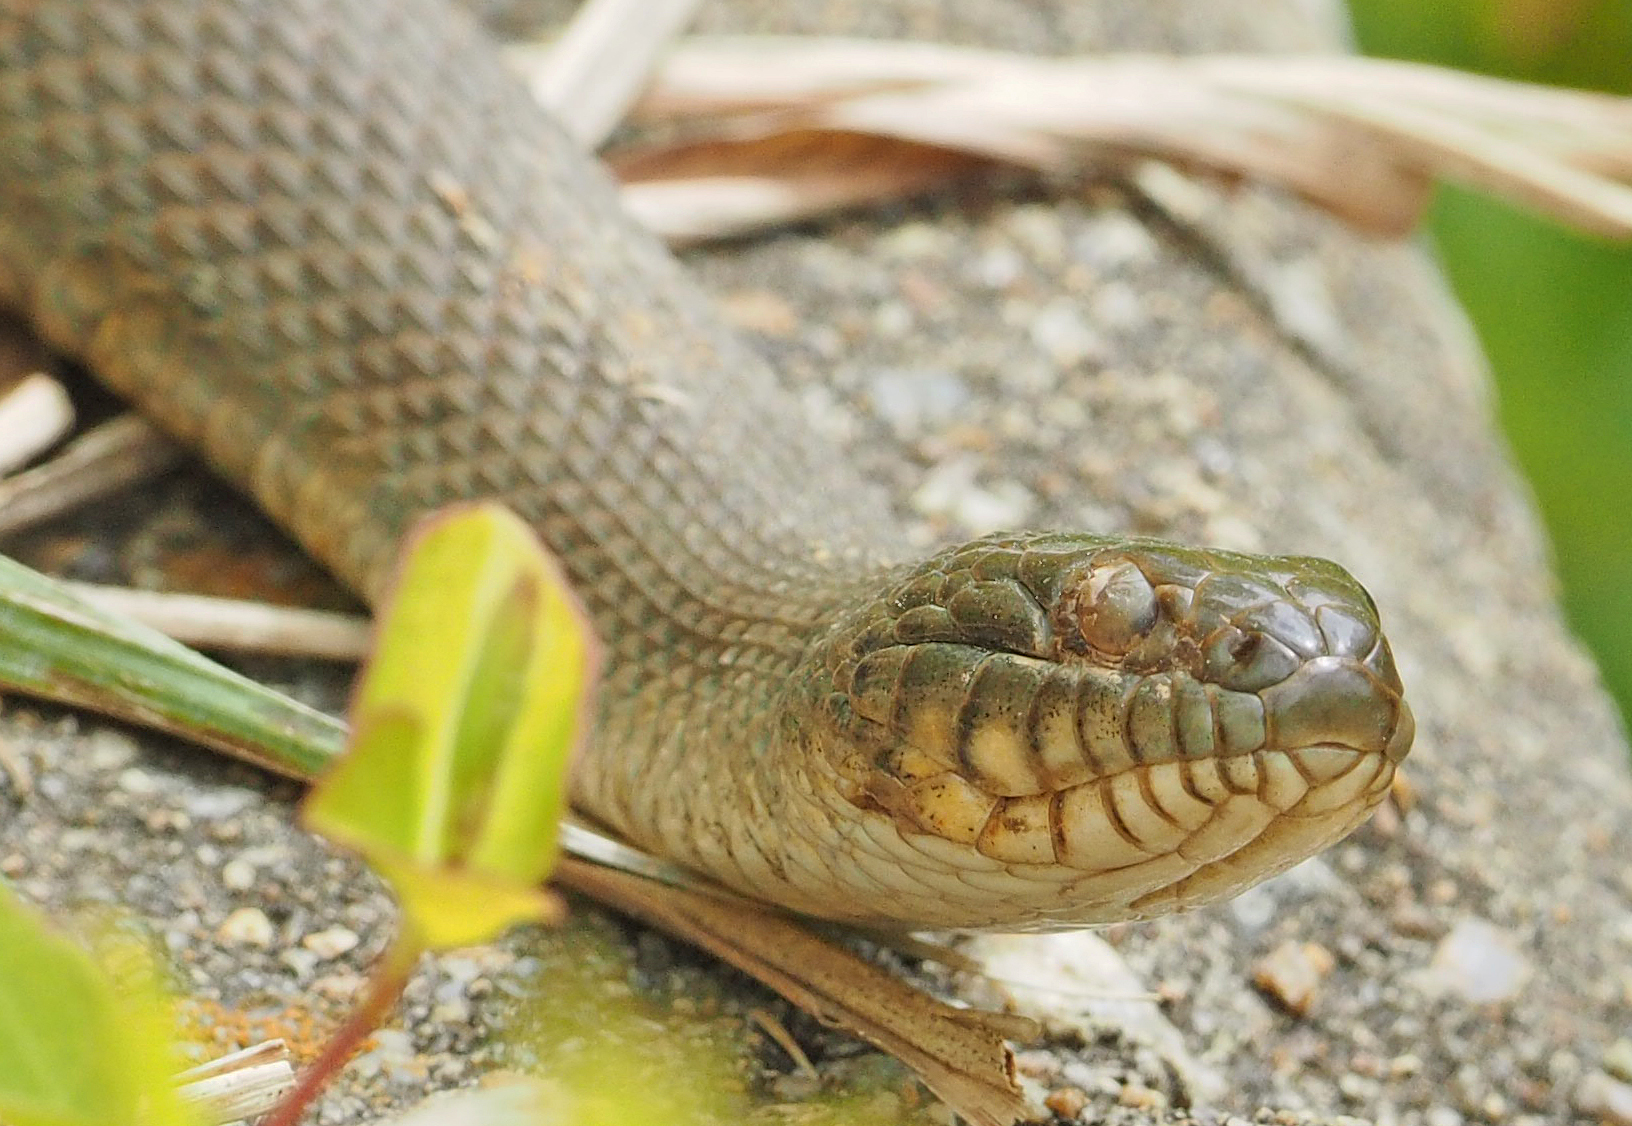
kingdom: Animalia
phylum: Chordata
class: Squamata
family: Colubridae
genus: Nerodia
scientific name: Nerodia sipedon
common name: Northern water snake
